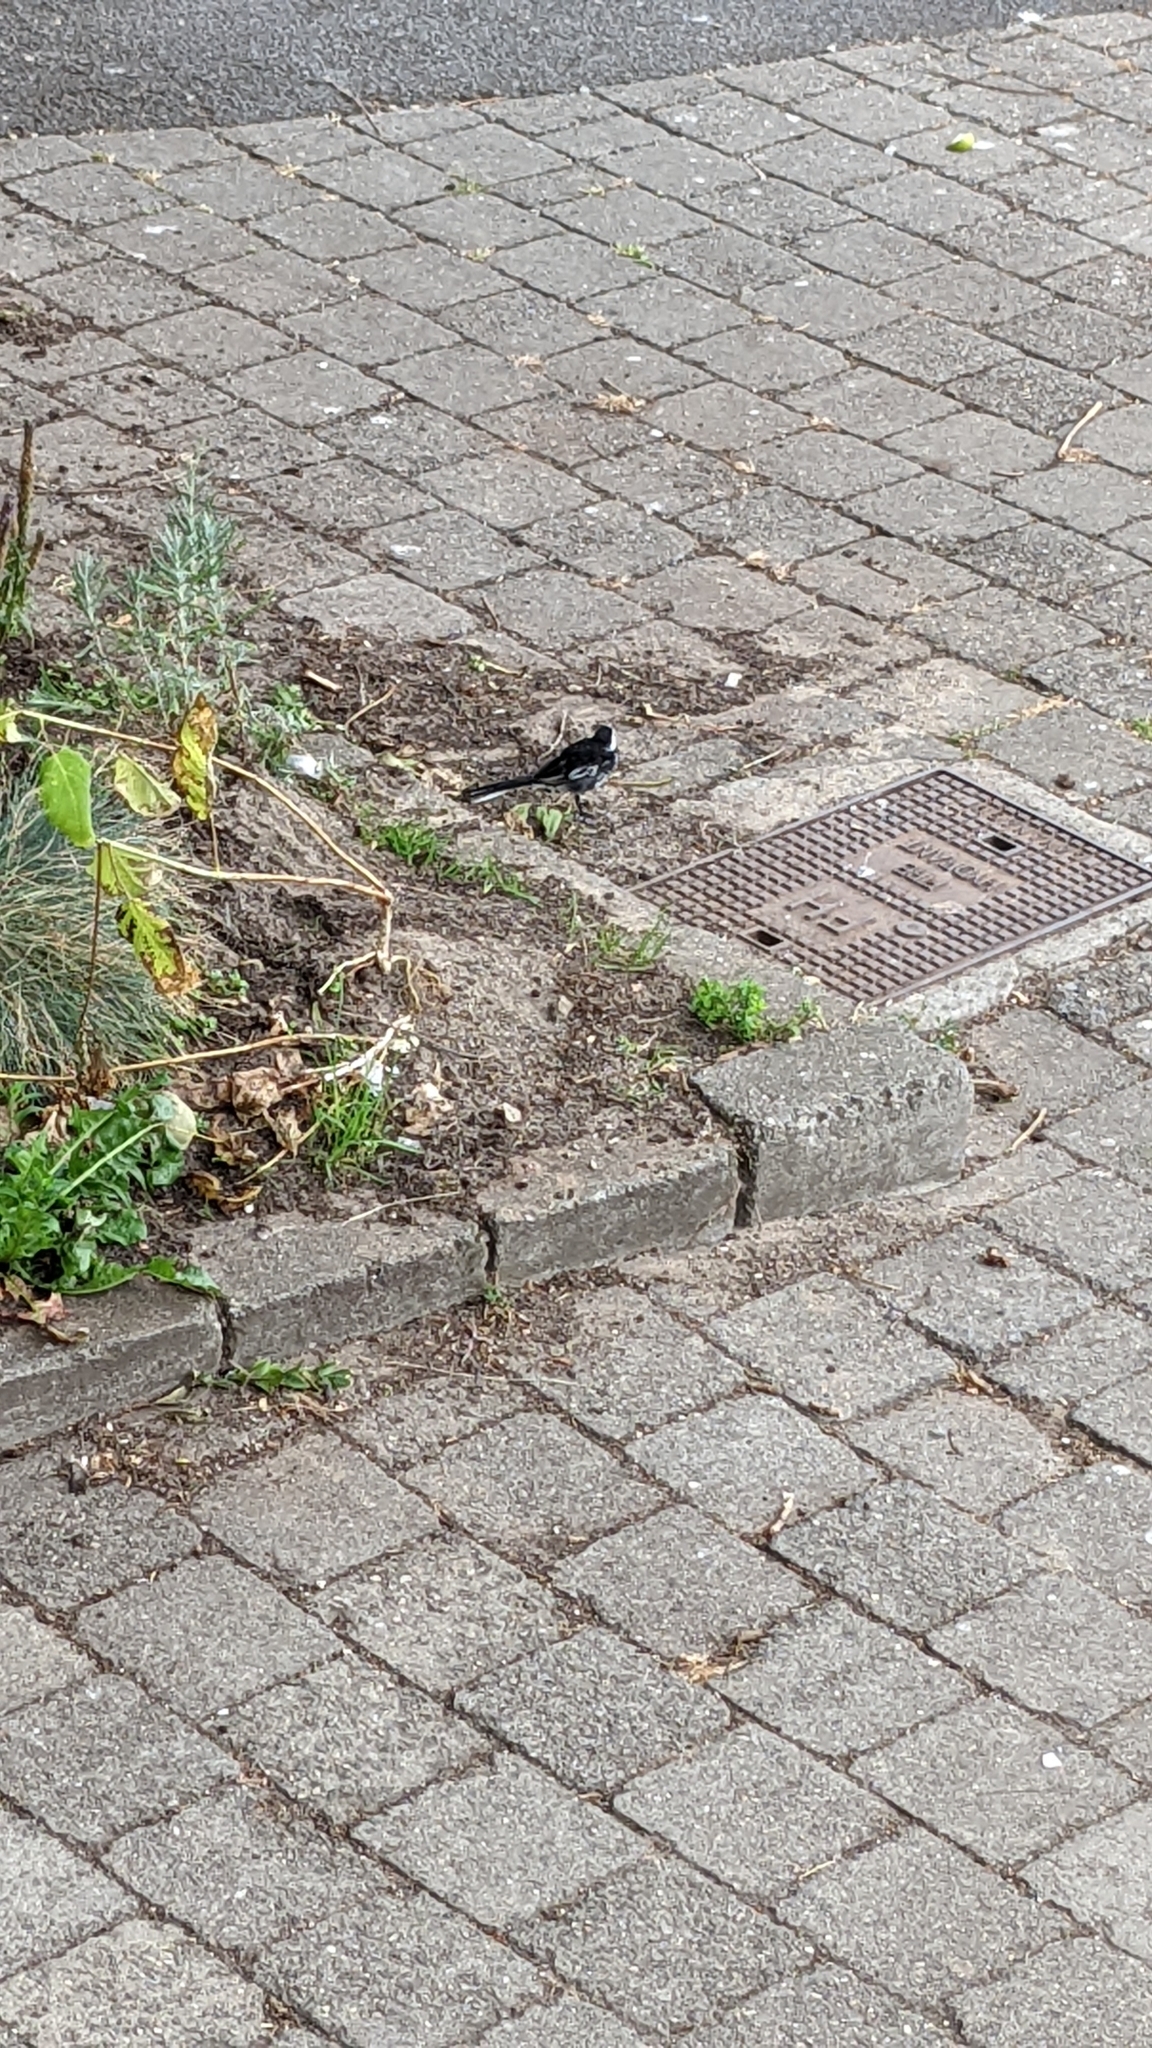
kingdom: Animalia
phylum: Chordata
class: Aves
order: Passeriformes
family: Motacillidae
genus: Motacilla
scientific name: Motacilla alba
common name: White wagtail
